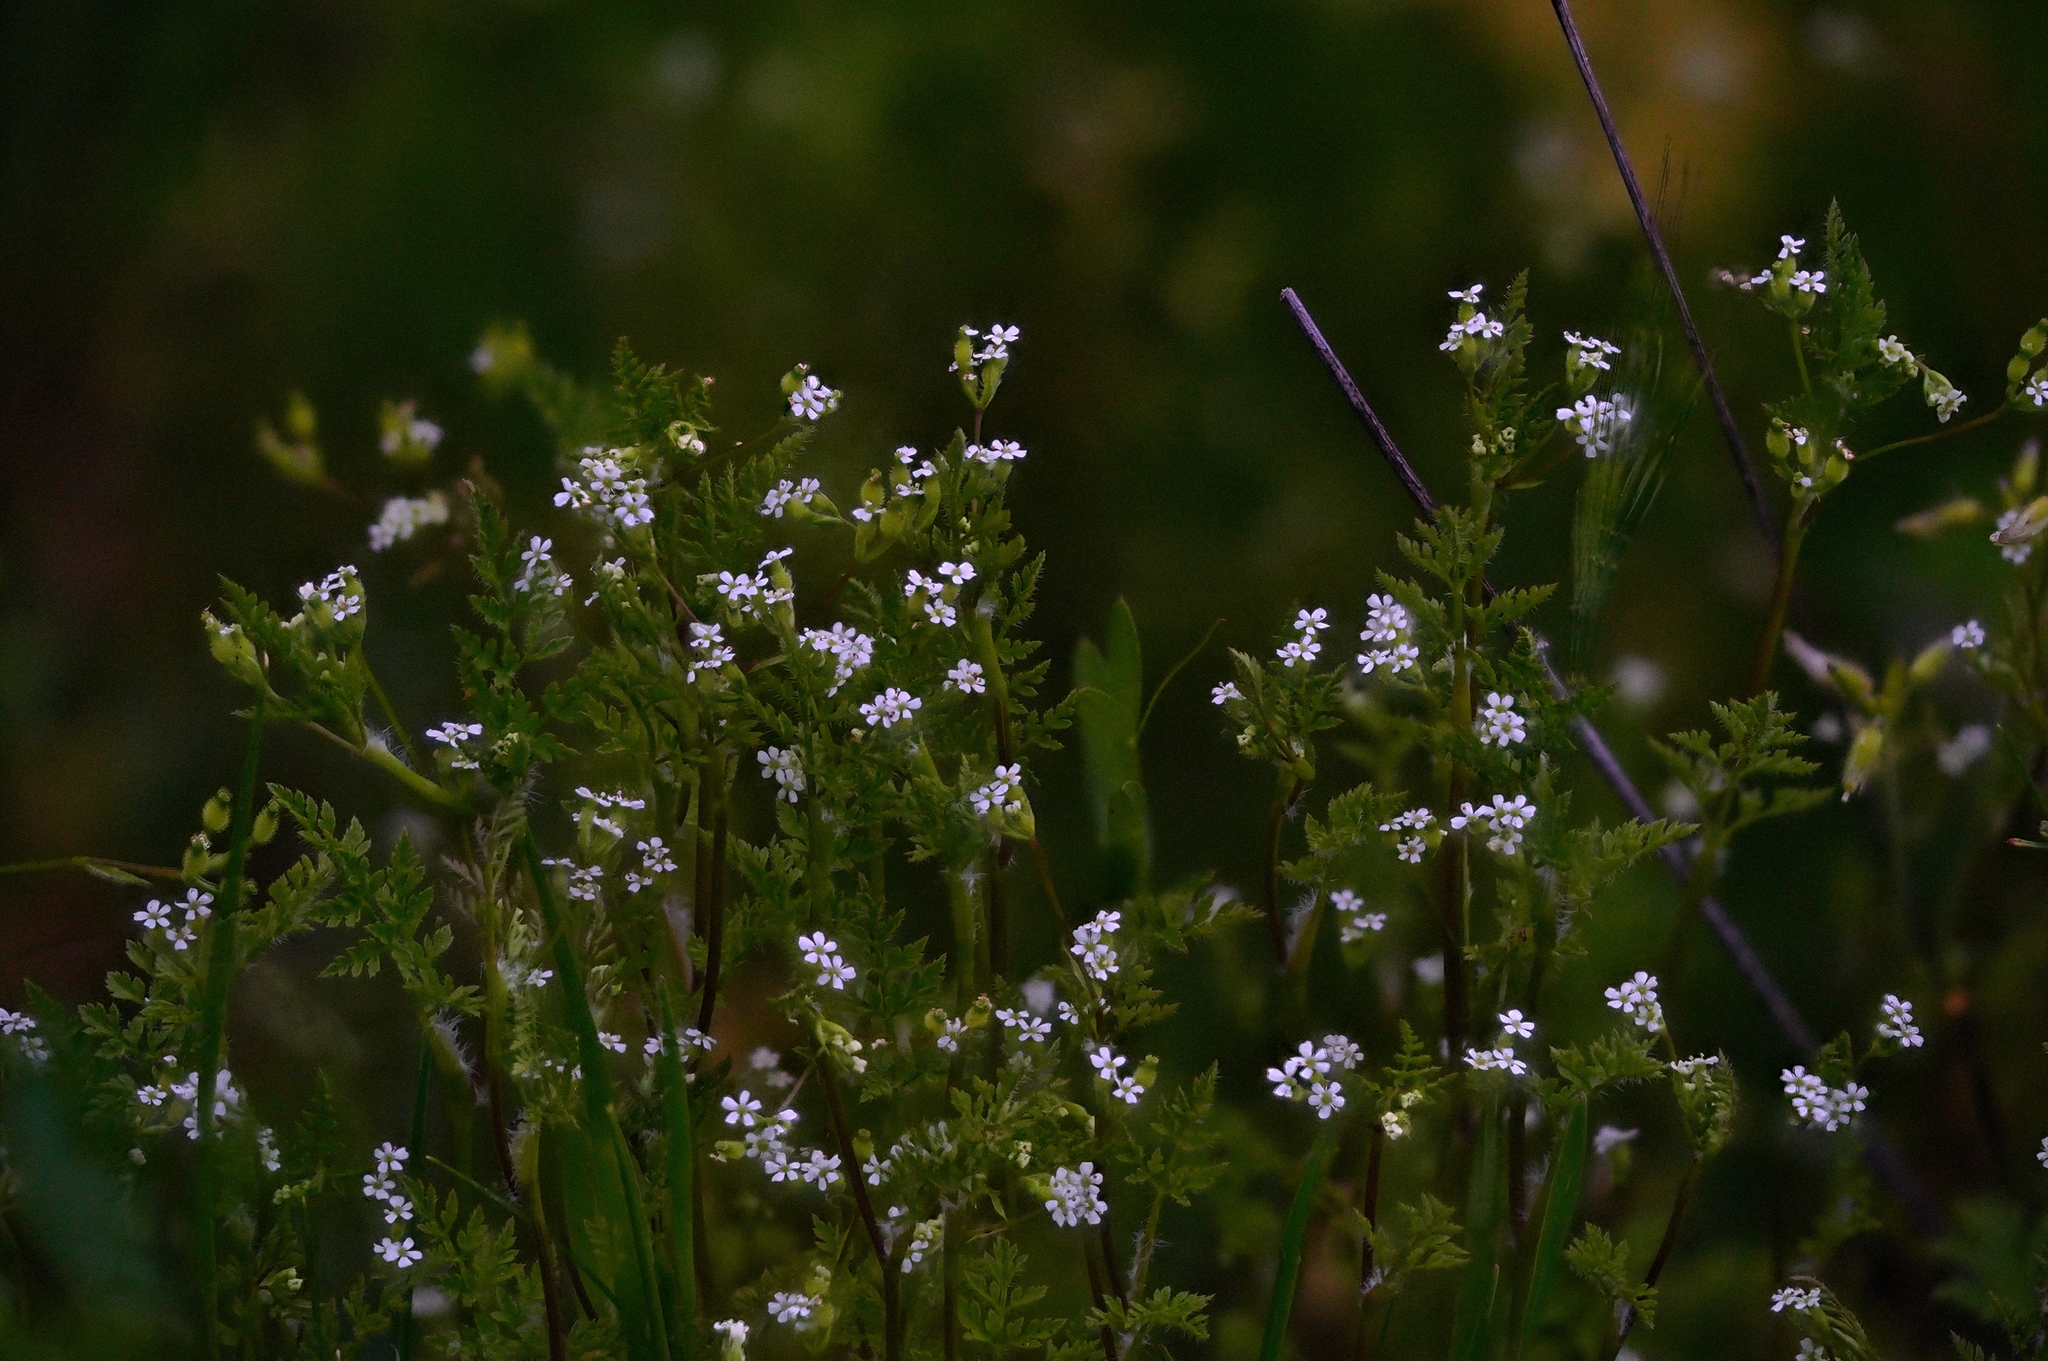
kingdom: Plantae
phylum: Tracheophyta
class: Magnoliopsida
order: Apiales
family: Apiaceae
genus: Scandix
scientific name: Scandix pecten-veneris
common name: Shepherd's-needle
